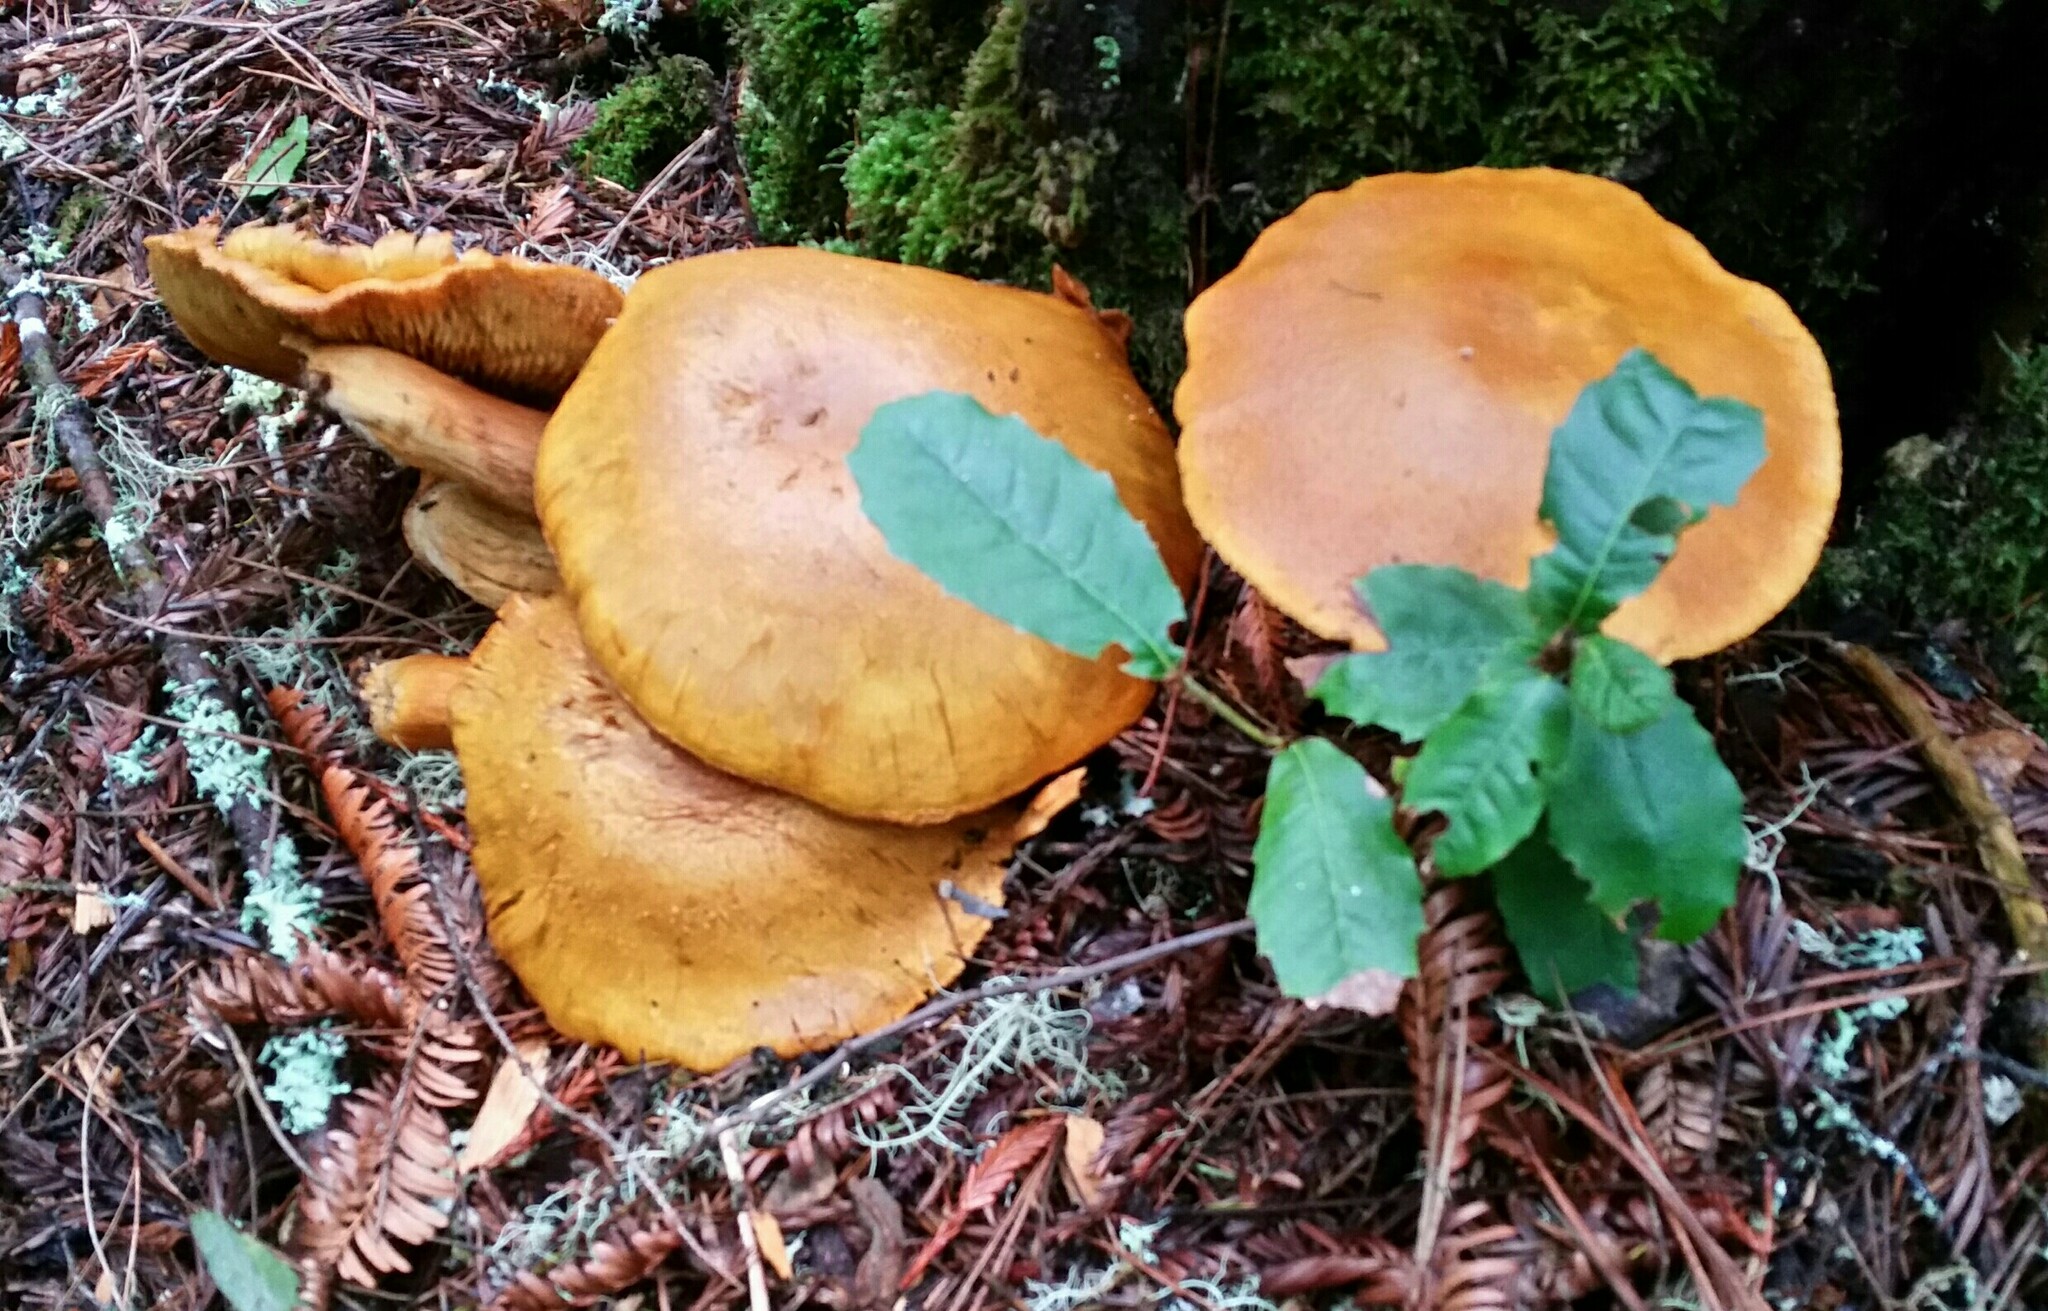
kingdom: Fungi
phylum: Basidiomycota
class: Agaricomycetes
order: Agaricales
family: Hymenogastraceae
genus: Gymnopilus
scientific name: Gymnopilus ventricosus
